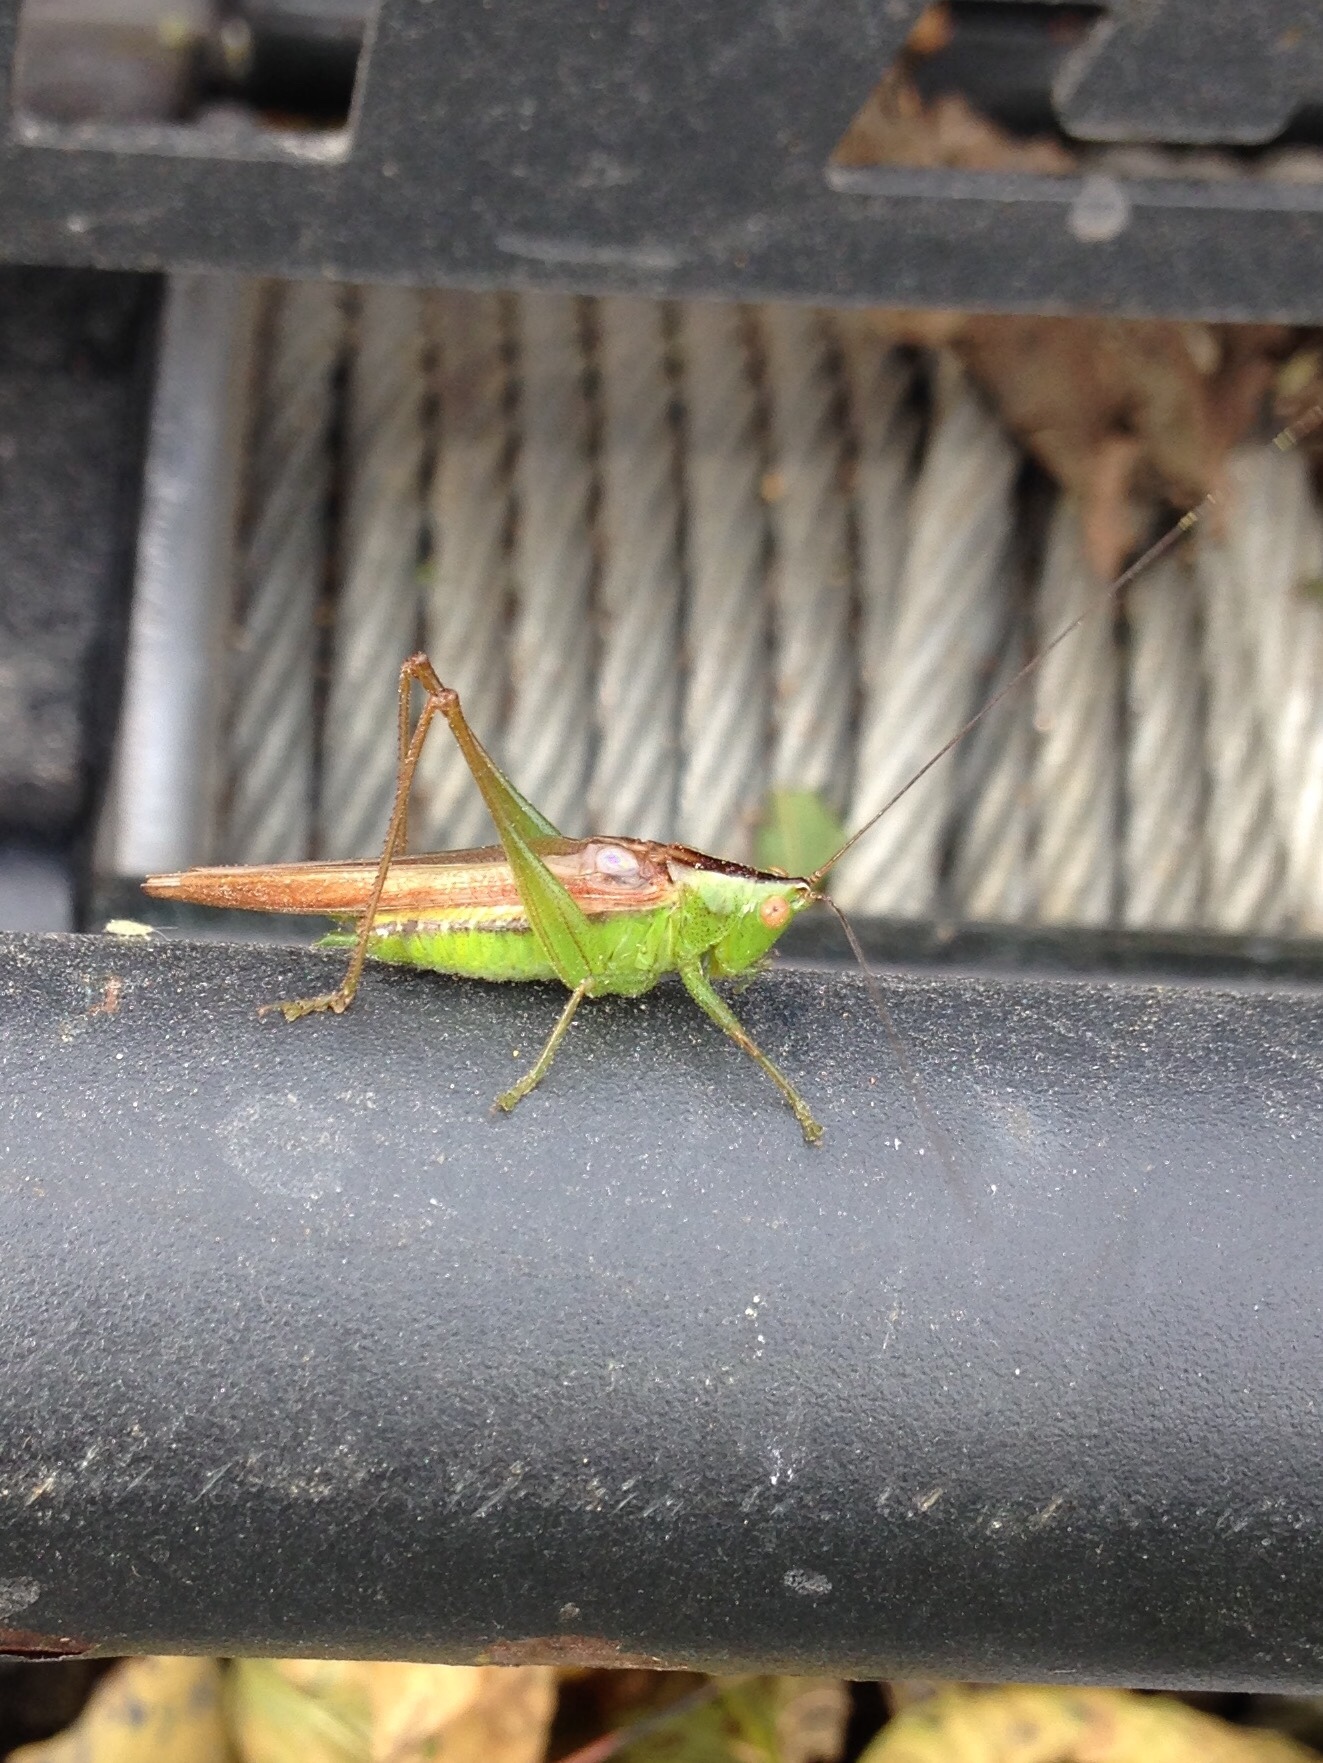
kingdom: Animalia
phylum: Arthropoda
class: Insecta
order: Orthoptera
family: Tettigoniidae
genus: Conocephalus
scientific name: Conocephalus fasciatus
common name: Slender meadow katydid
